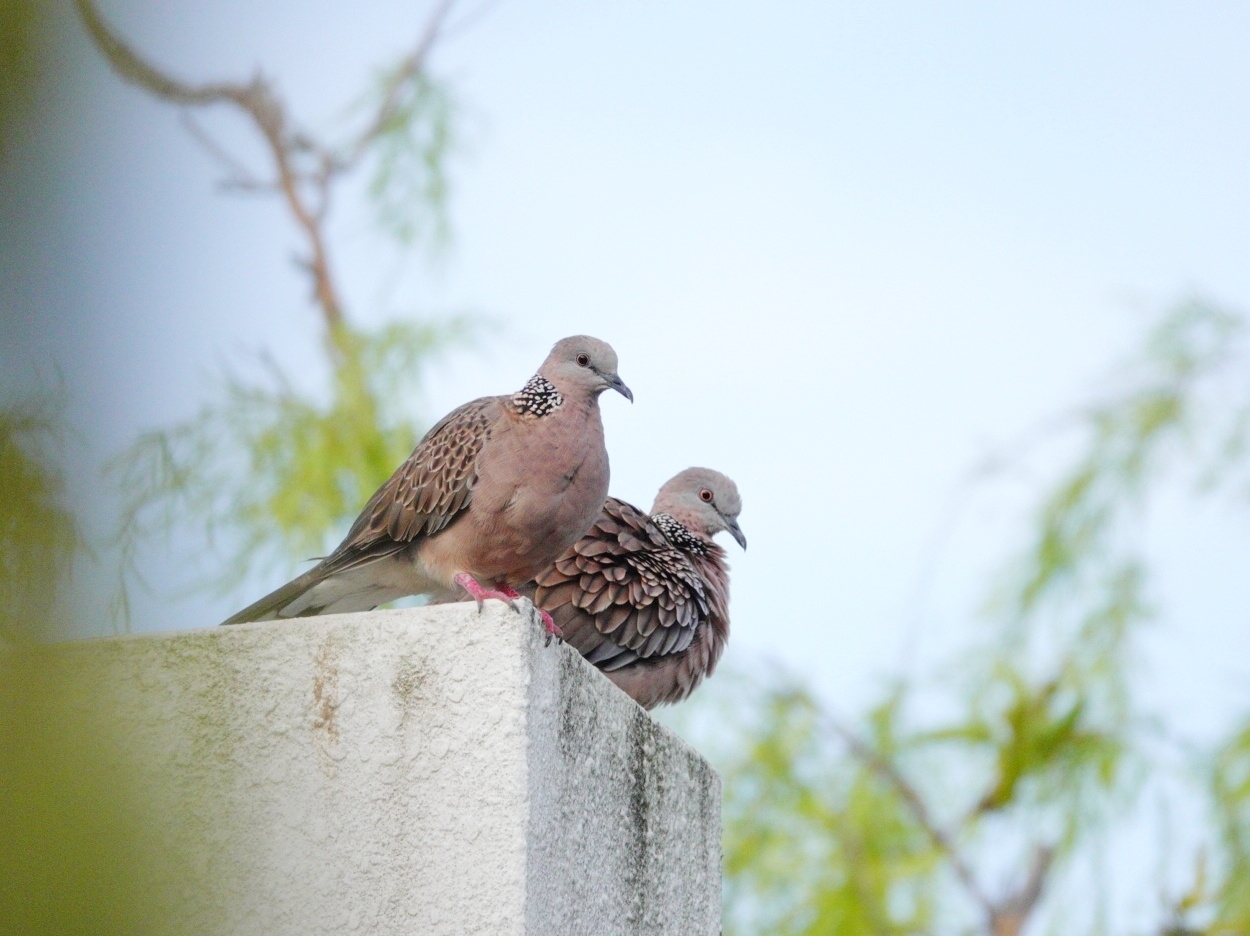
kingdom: Animalia
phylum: Chordata
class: Aves
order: Columbiformes
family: Columbidae
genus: Spilopelia
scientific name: Spilopelia chinensis
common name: Spotted dove
